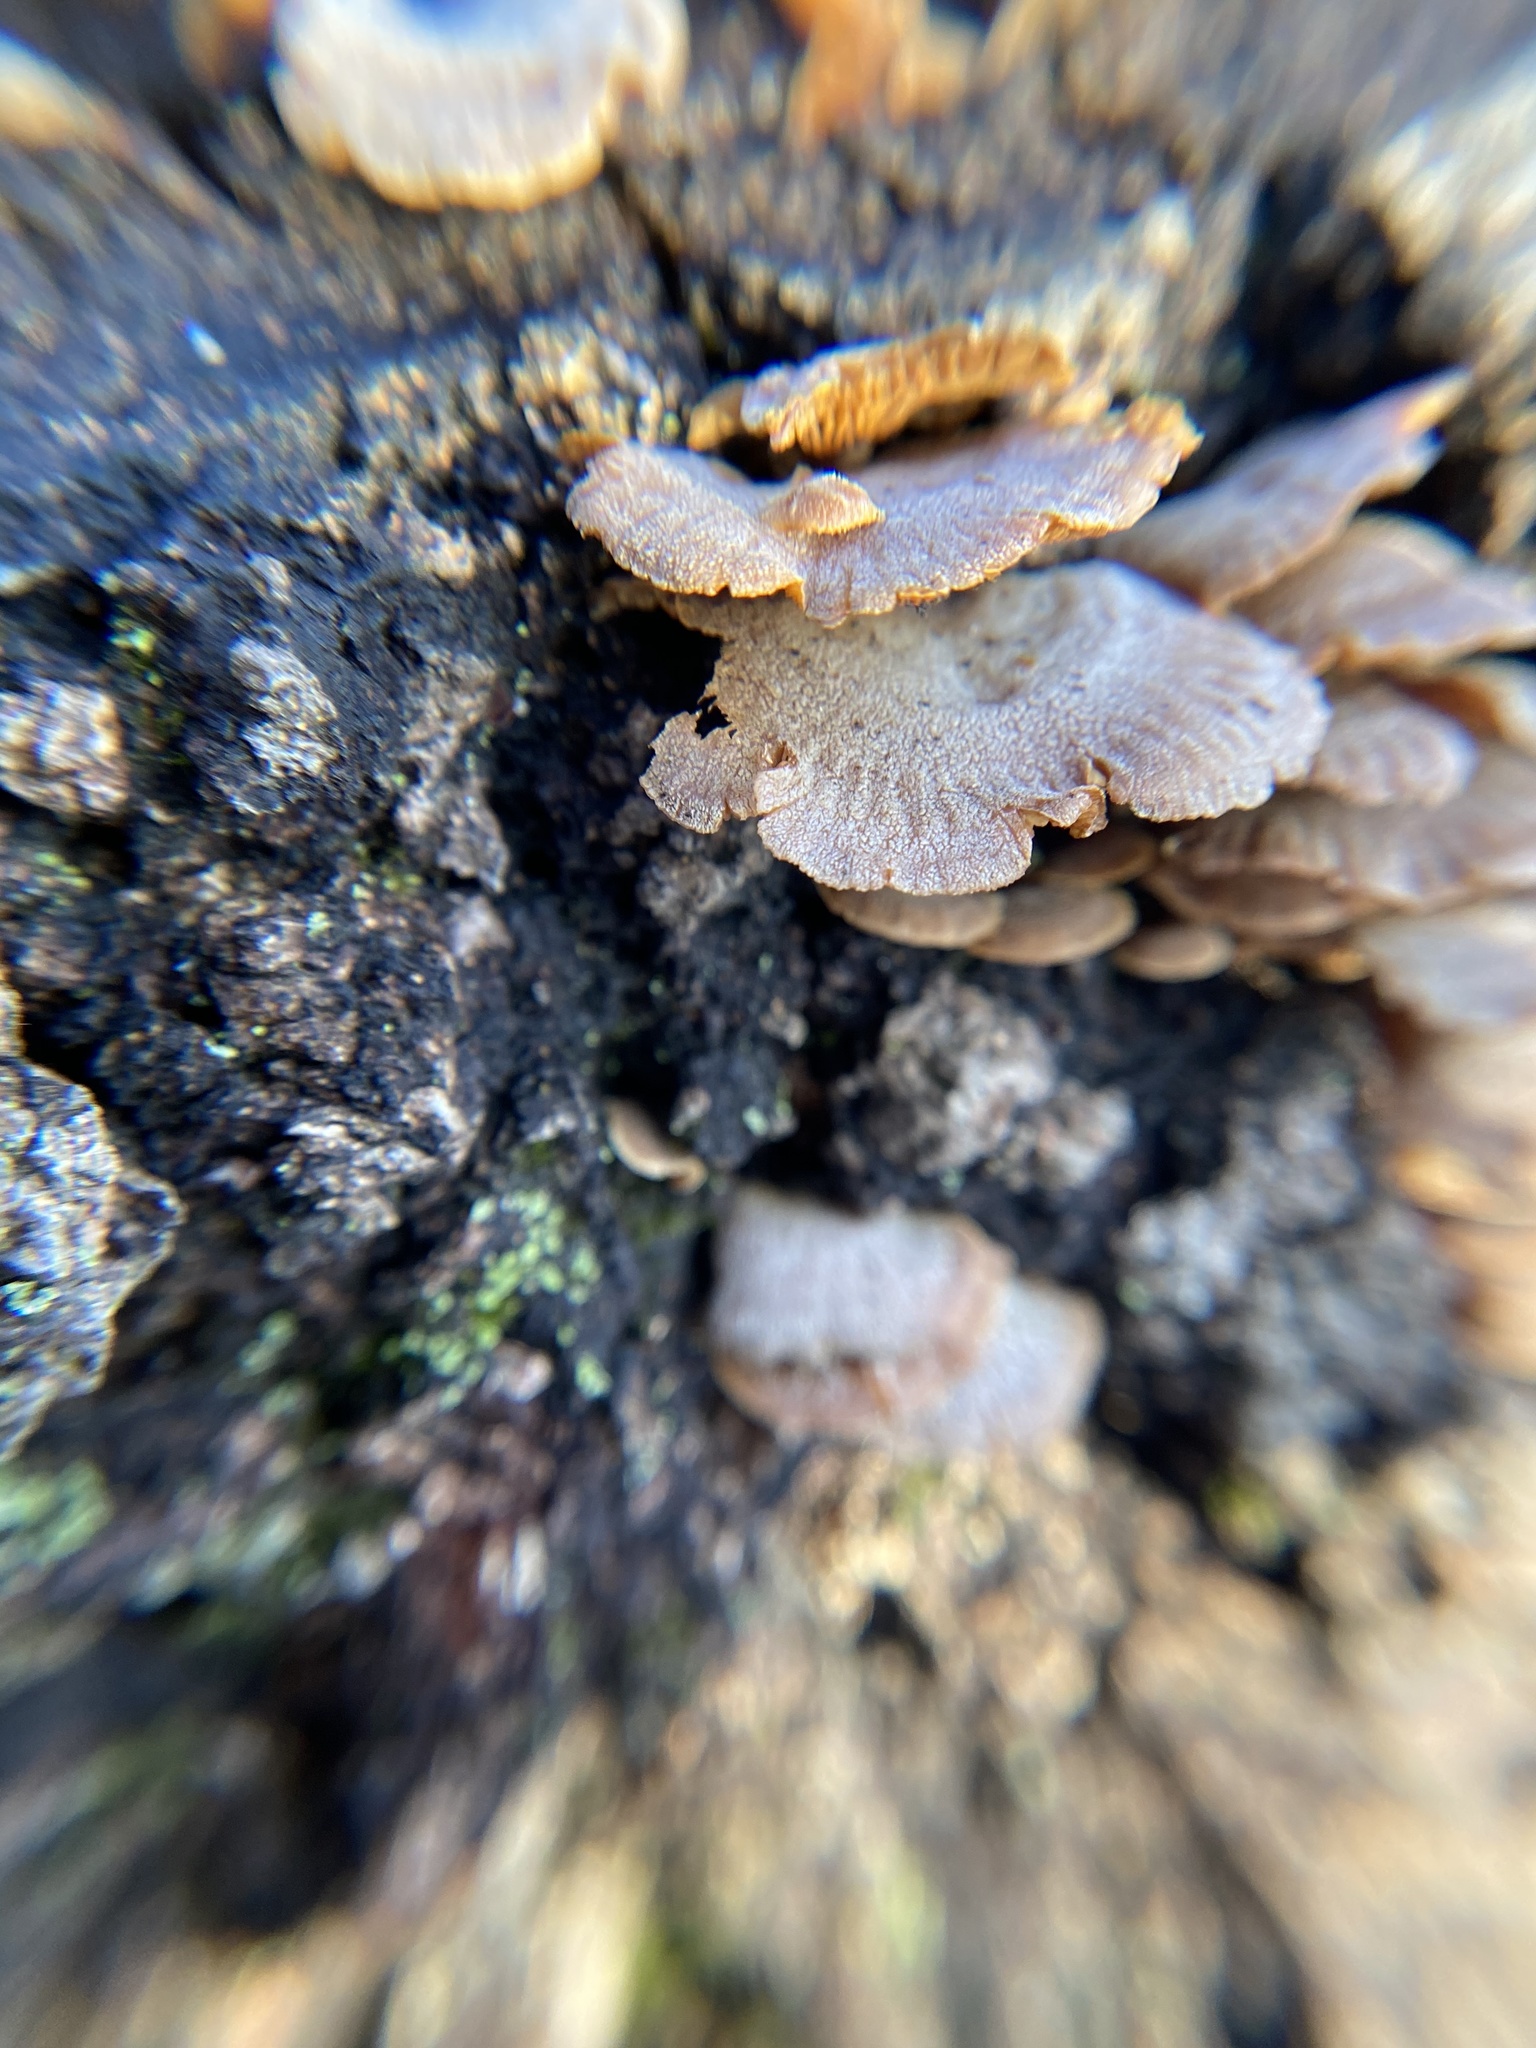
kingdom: Fungi
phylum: Basidiomycota
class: Agaricomycetes
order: Agaricales
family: Mycenaceae
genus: Panellus
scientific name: Panellus stipticus
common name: Bitter oysterling
